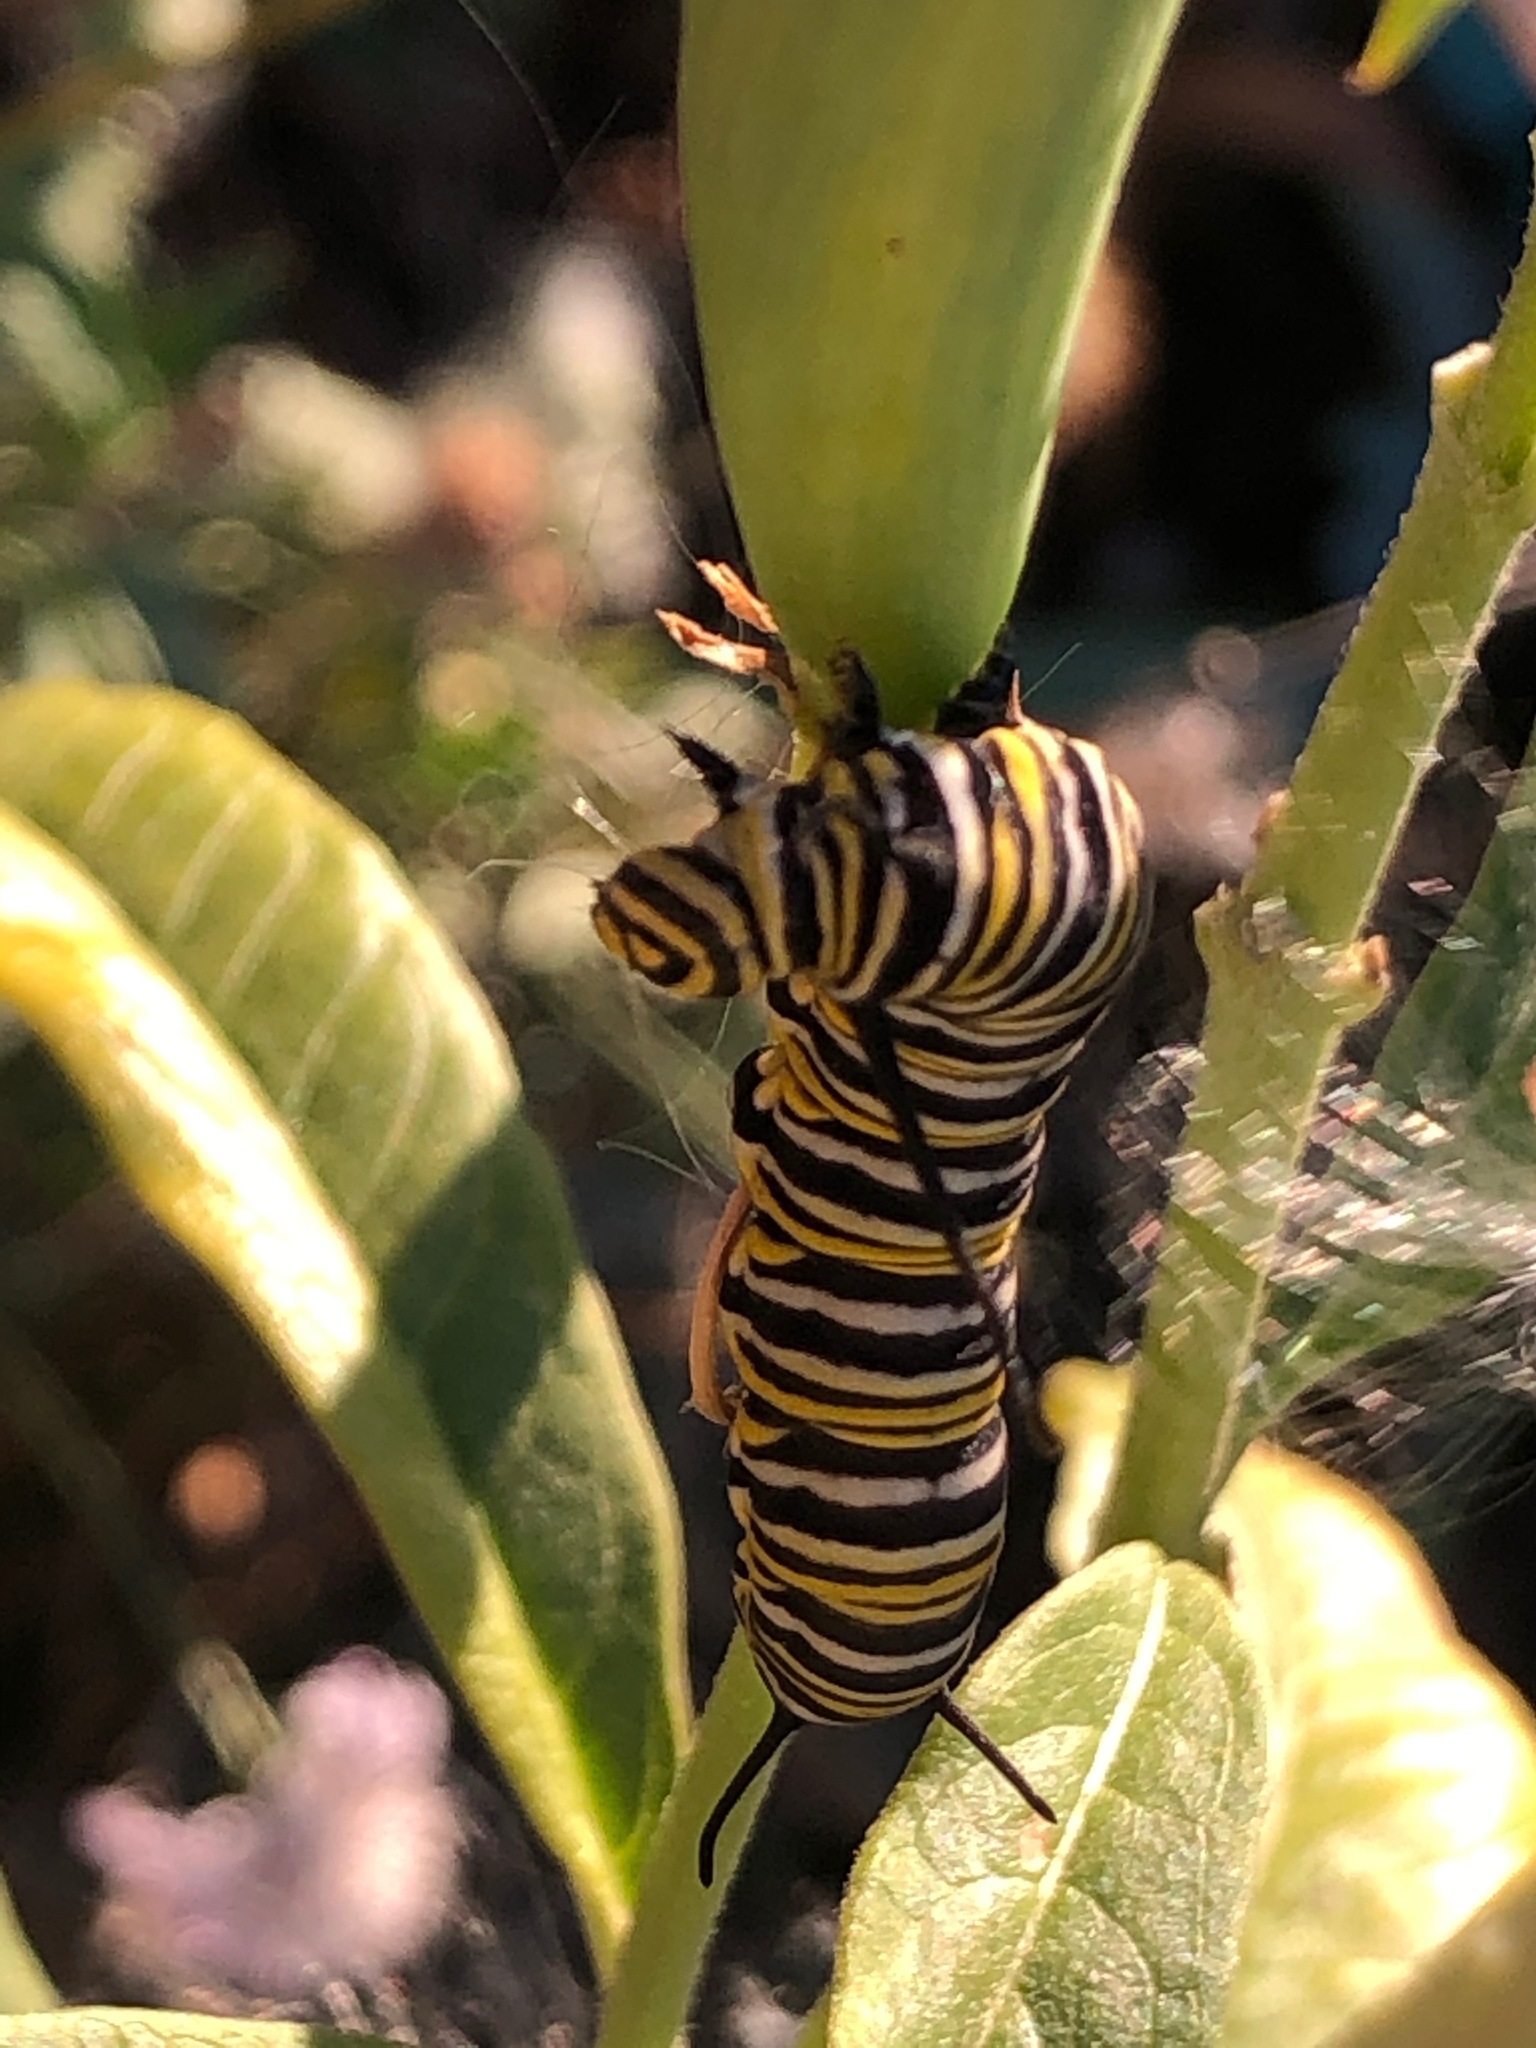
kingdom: Animalia
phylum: Arthropoda
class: Insecta
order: Lepidoptera
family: Nymphalidae
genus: Danaus
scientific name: Danaus plexippus
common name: Monarch
